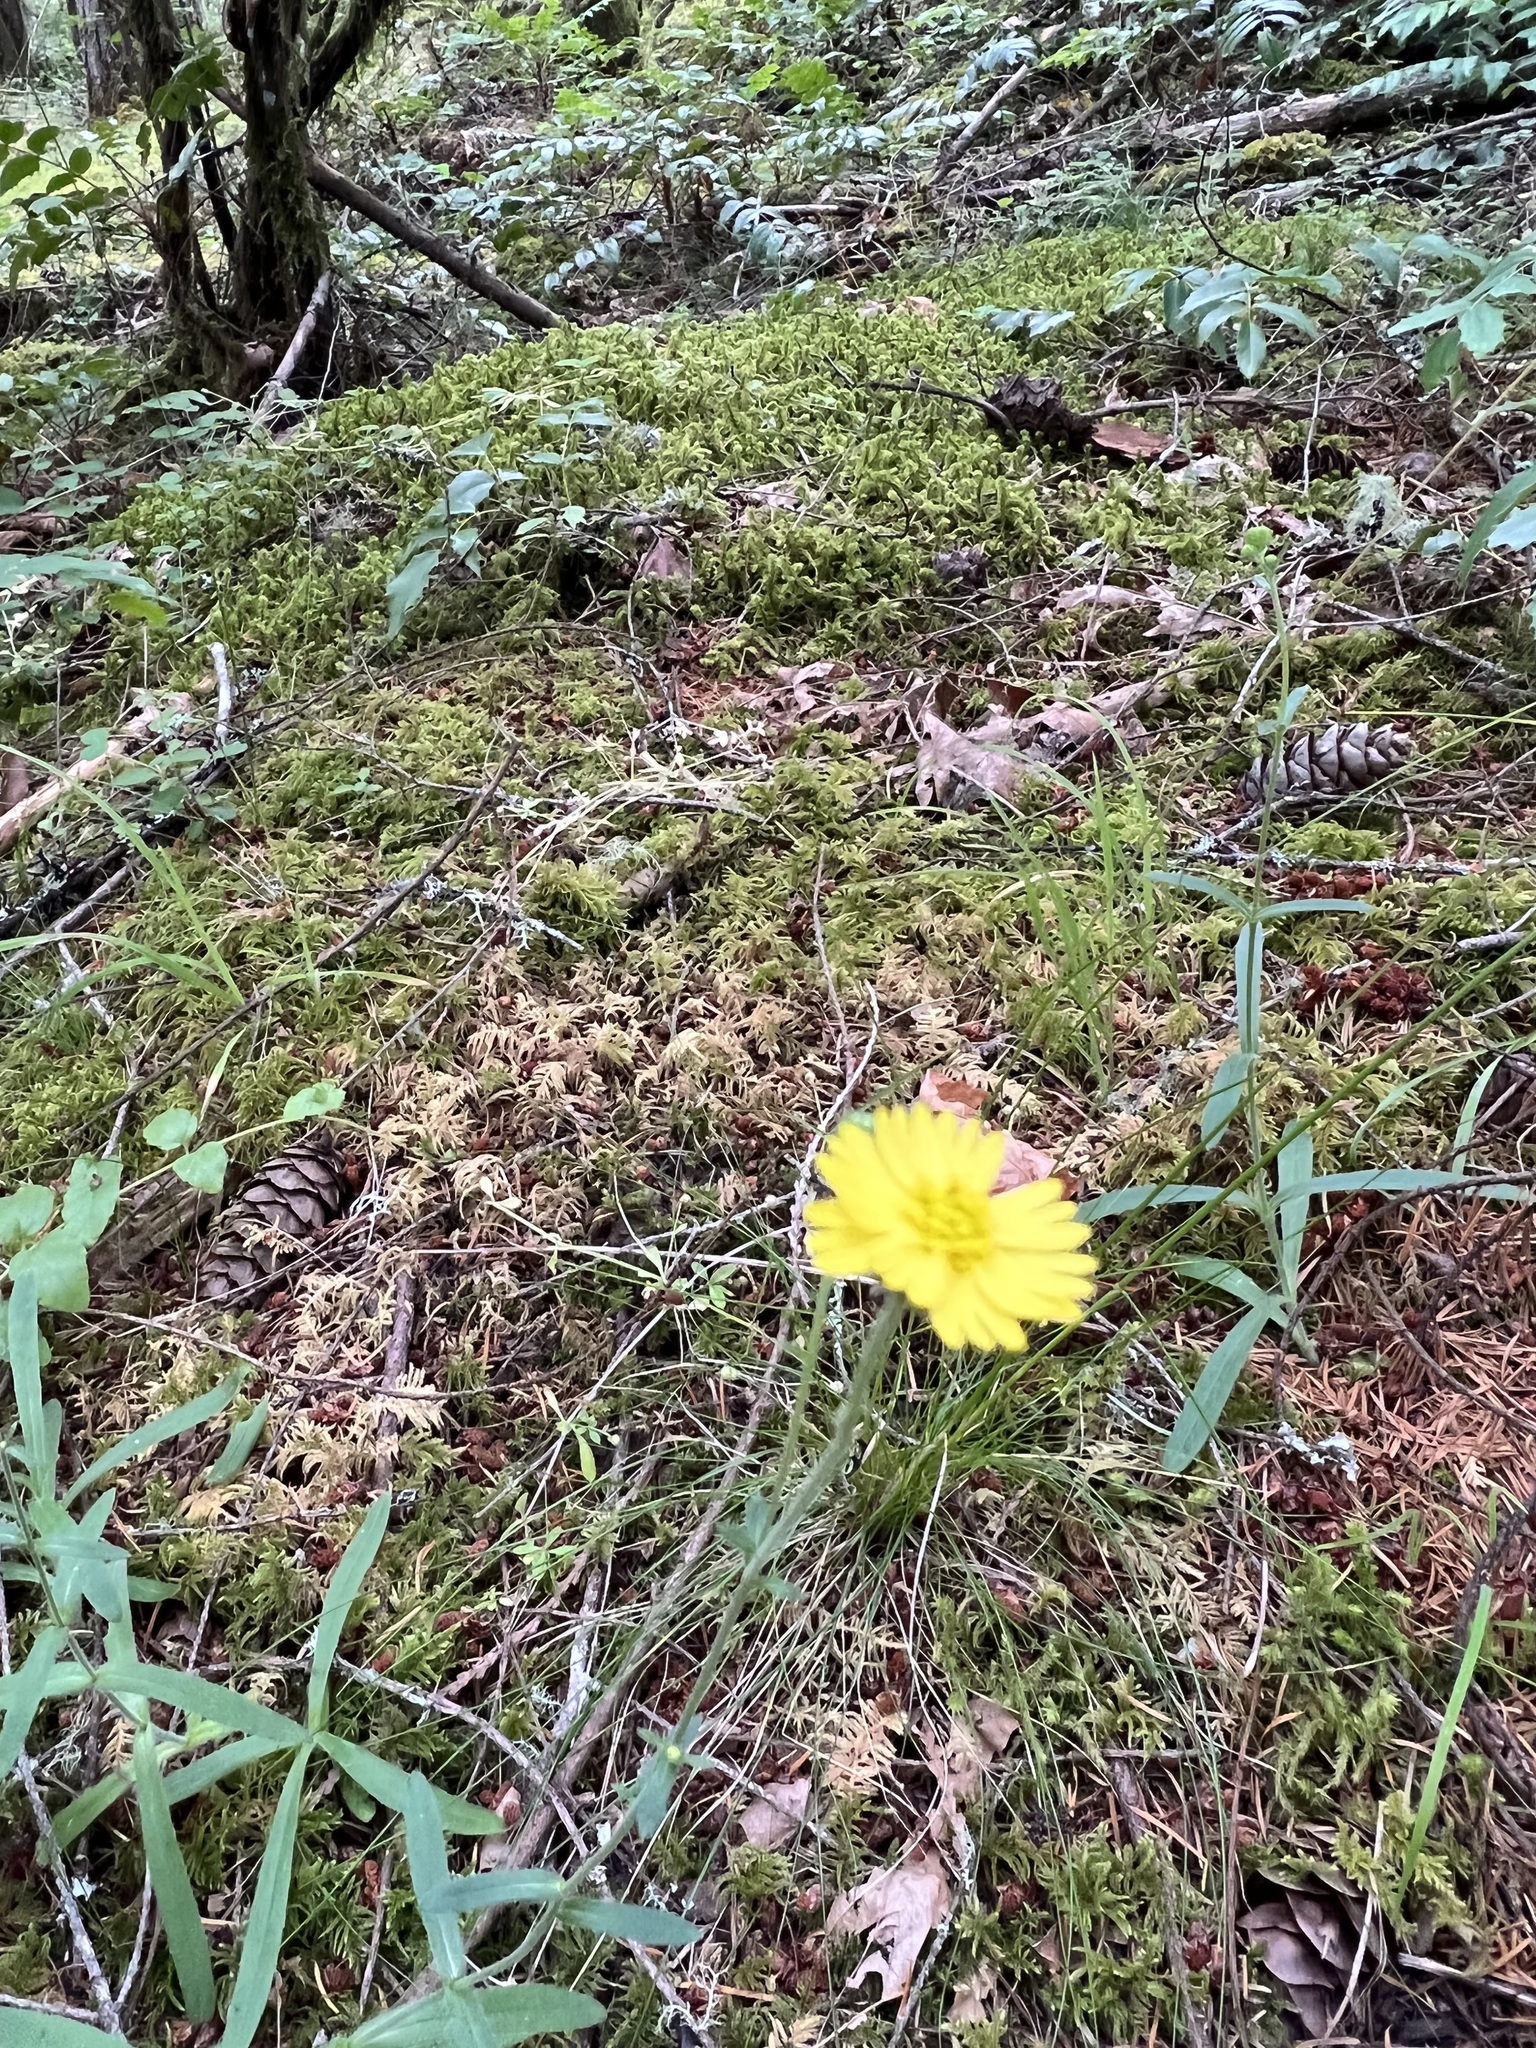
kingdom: Plantae
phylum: Tracheophyta
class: Magnoliopsida
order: Asterales
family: Asteraceae
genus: Anisocarpus
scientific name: Anisocarpus madioides
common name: Woodland madia
